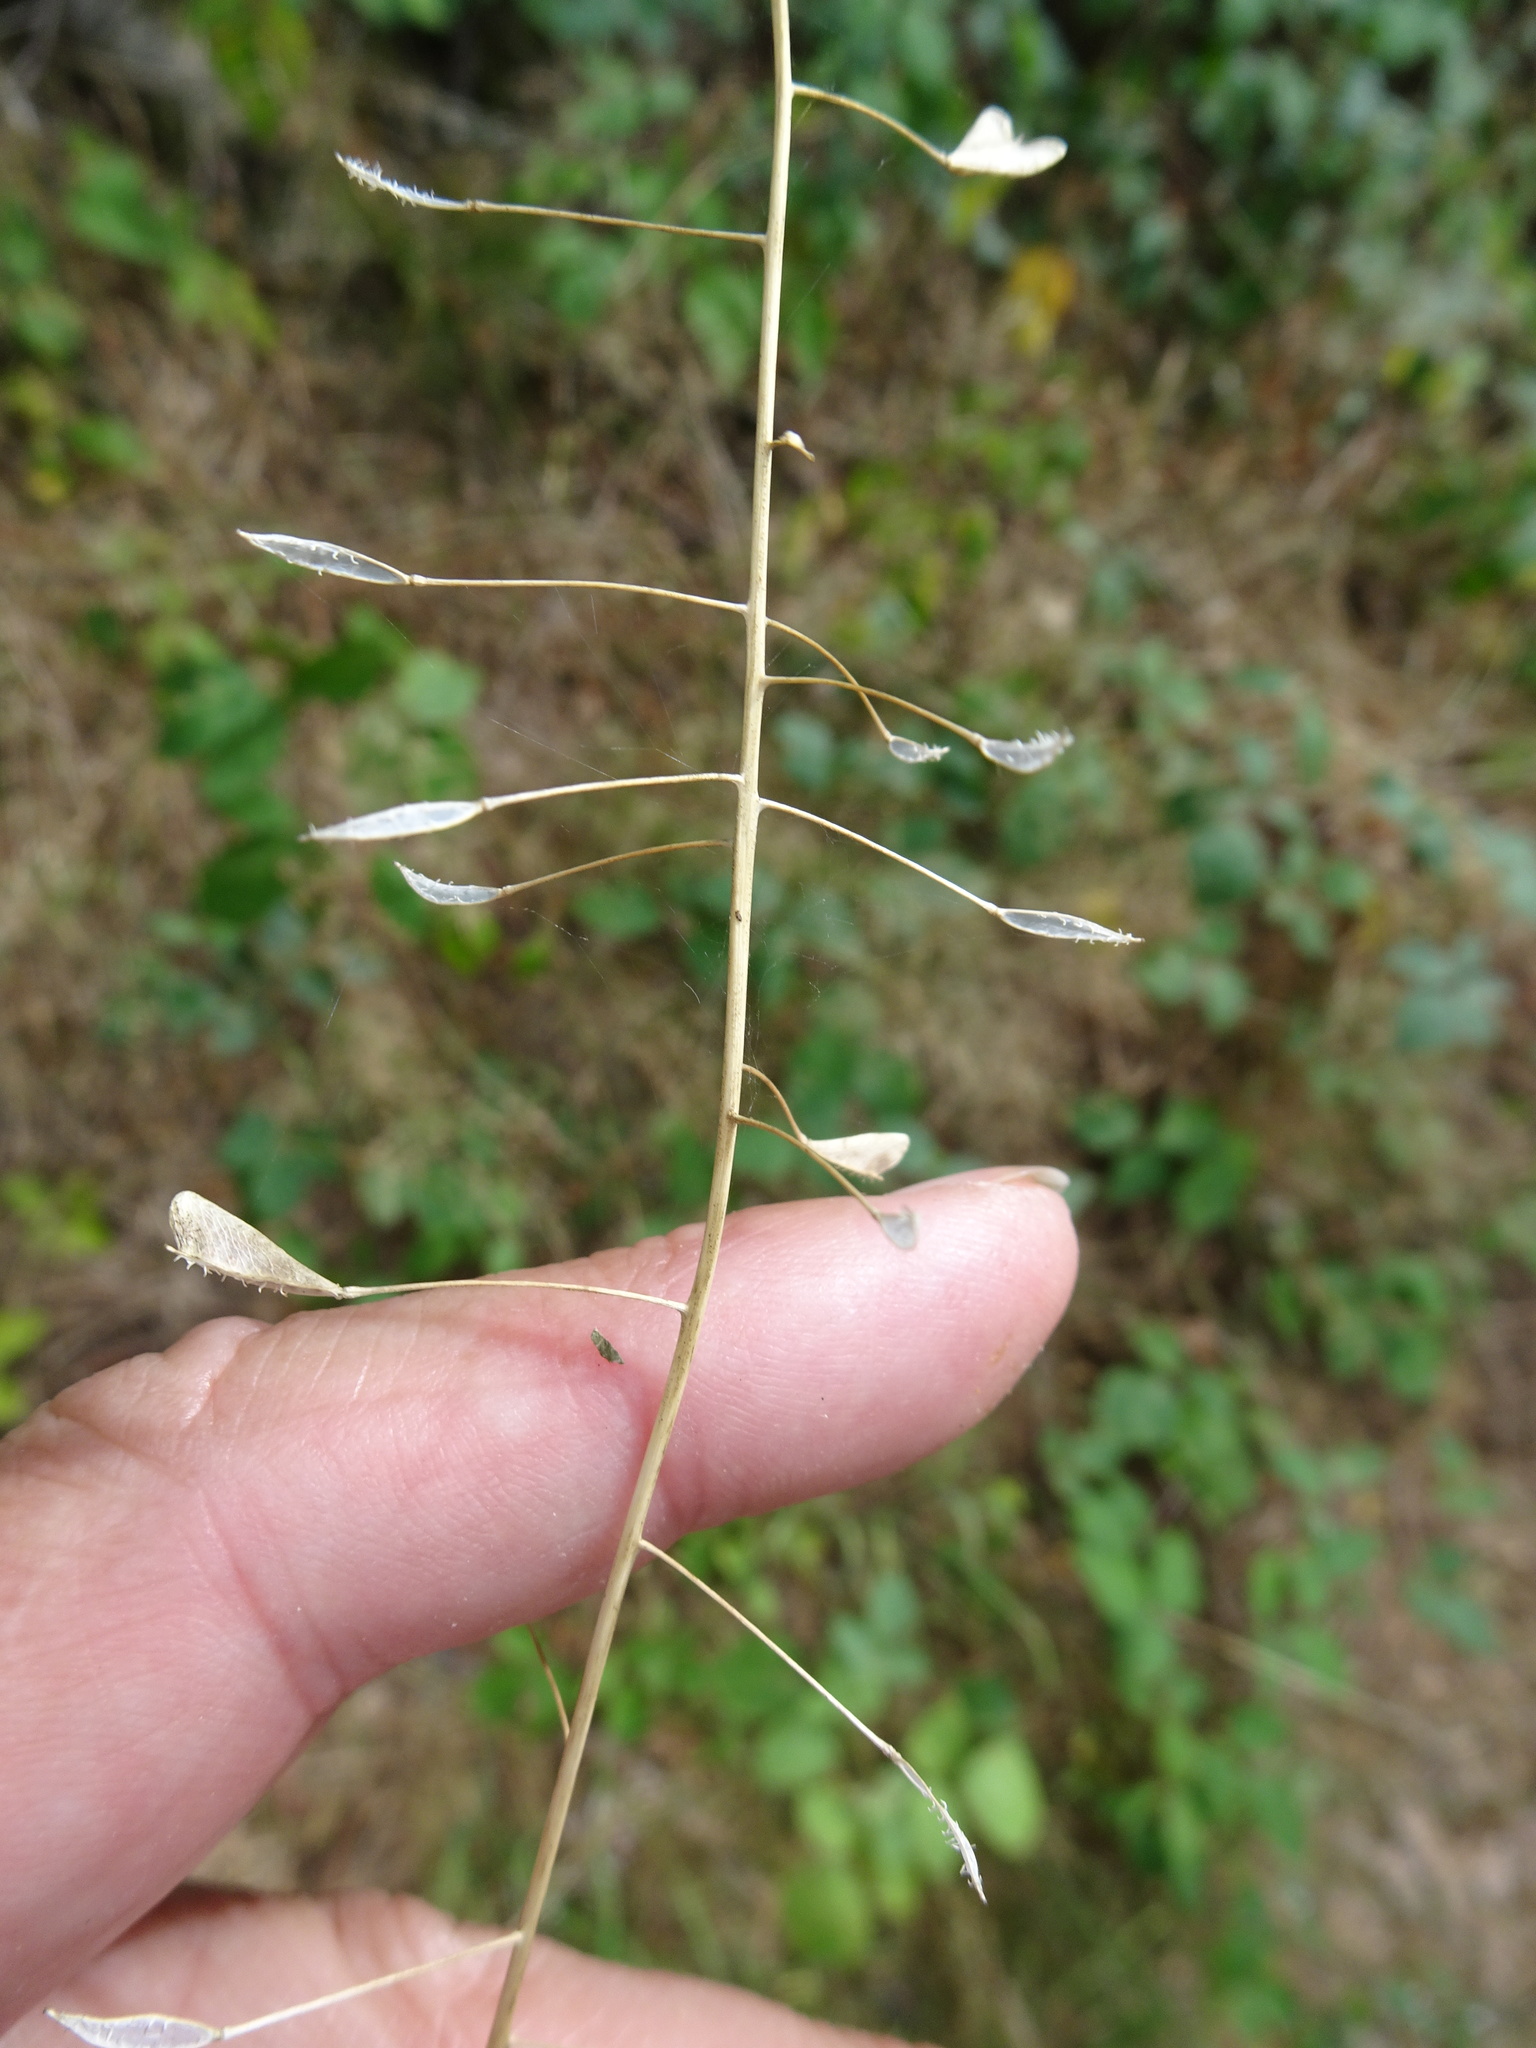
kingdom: Plantae
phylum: Tracheophyta
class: Magnoliopsida
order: Brassicales
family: Brassicaceae
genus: Capsella
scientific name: Capsella bursa-pastoris
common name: Shepherd's purse
